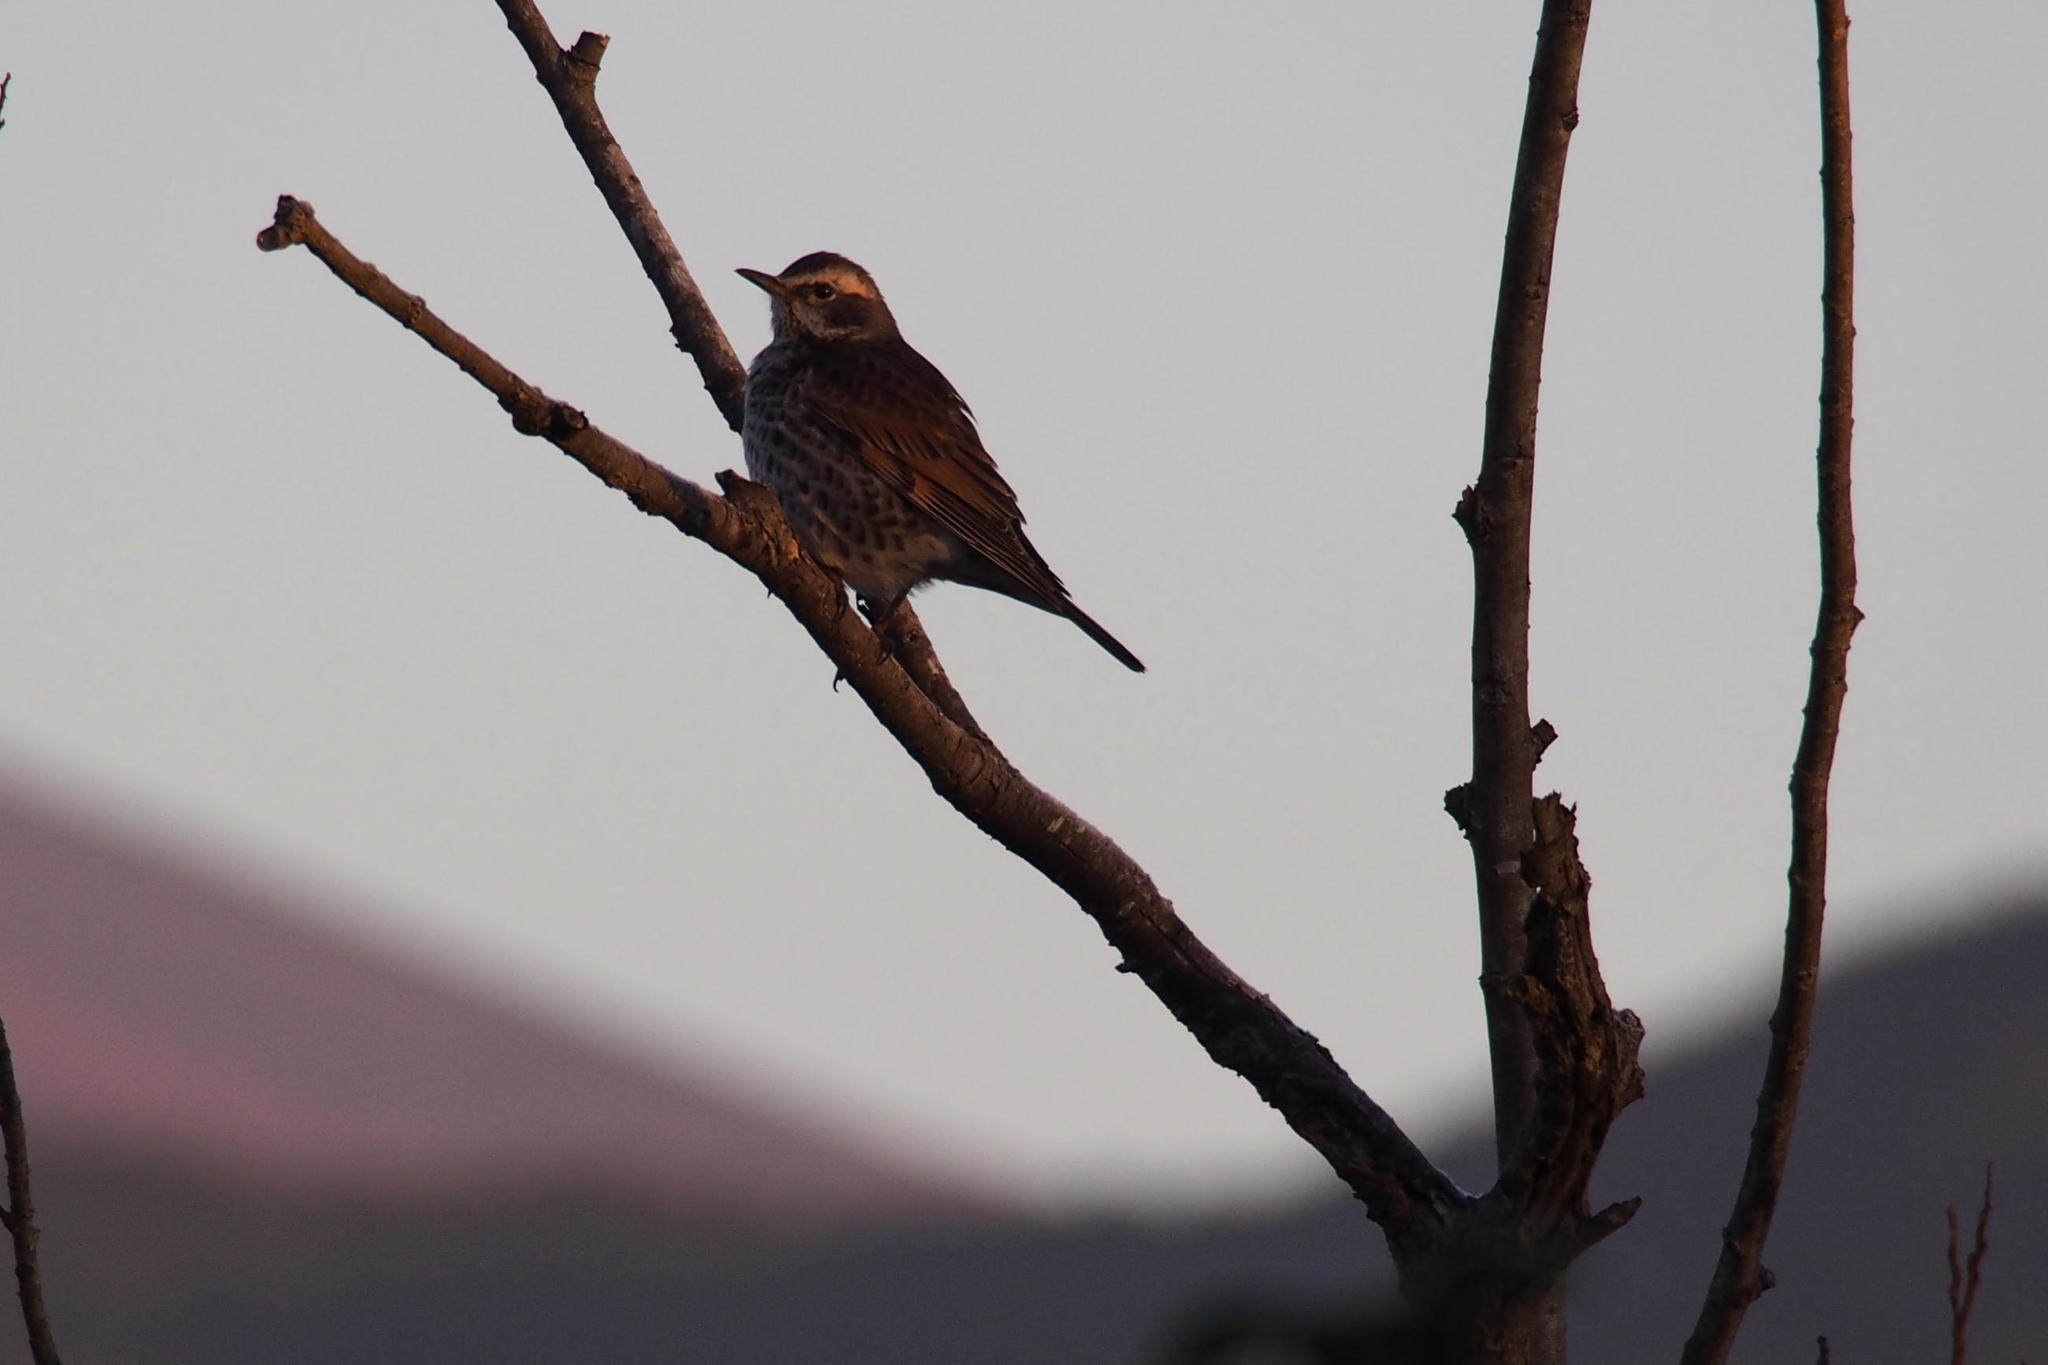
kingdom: Animalia
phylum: Chordata
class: Aves
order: Passeriformes
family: Turdidae
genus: Turdus
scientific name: Turdus eunomus
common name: Dusky thrush
